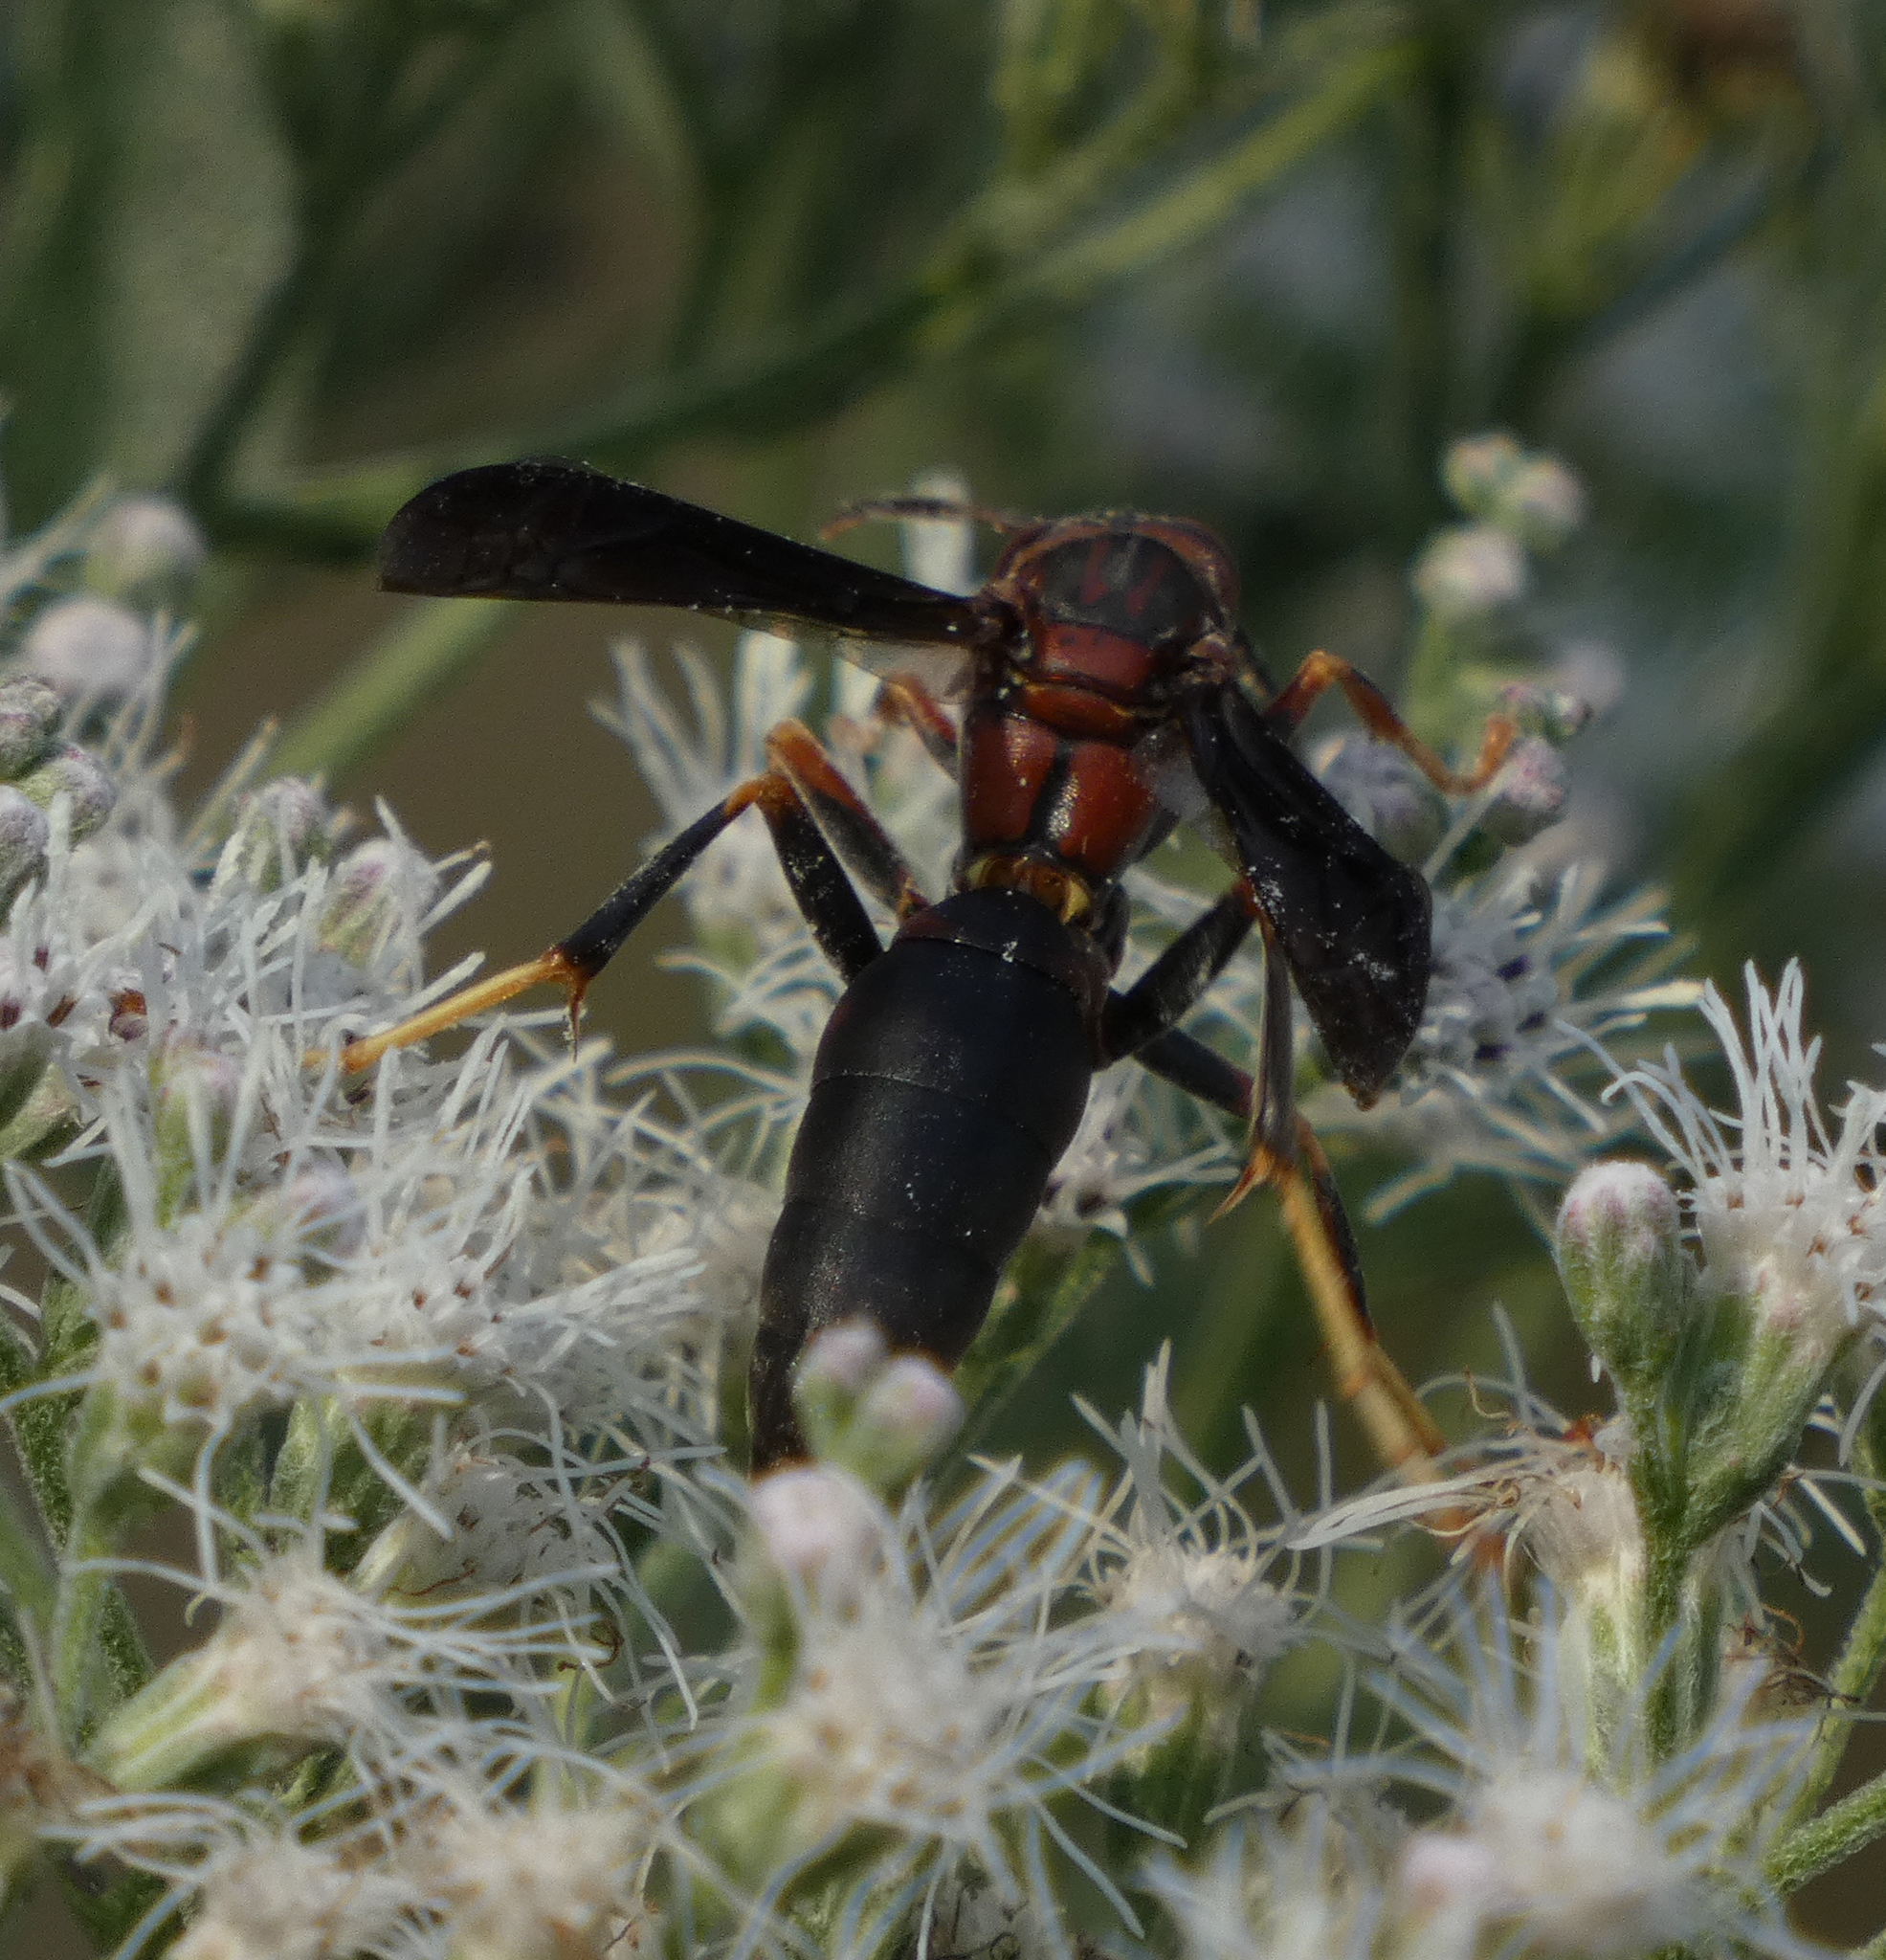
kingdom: Animalia
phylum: Arthropoda
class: Insecta
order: Hymenoptera
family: Eumenidae
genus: Polistes
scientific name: Polistes metricus
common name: Metric paper wasp
